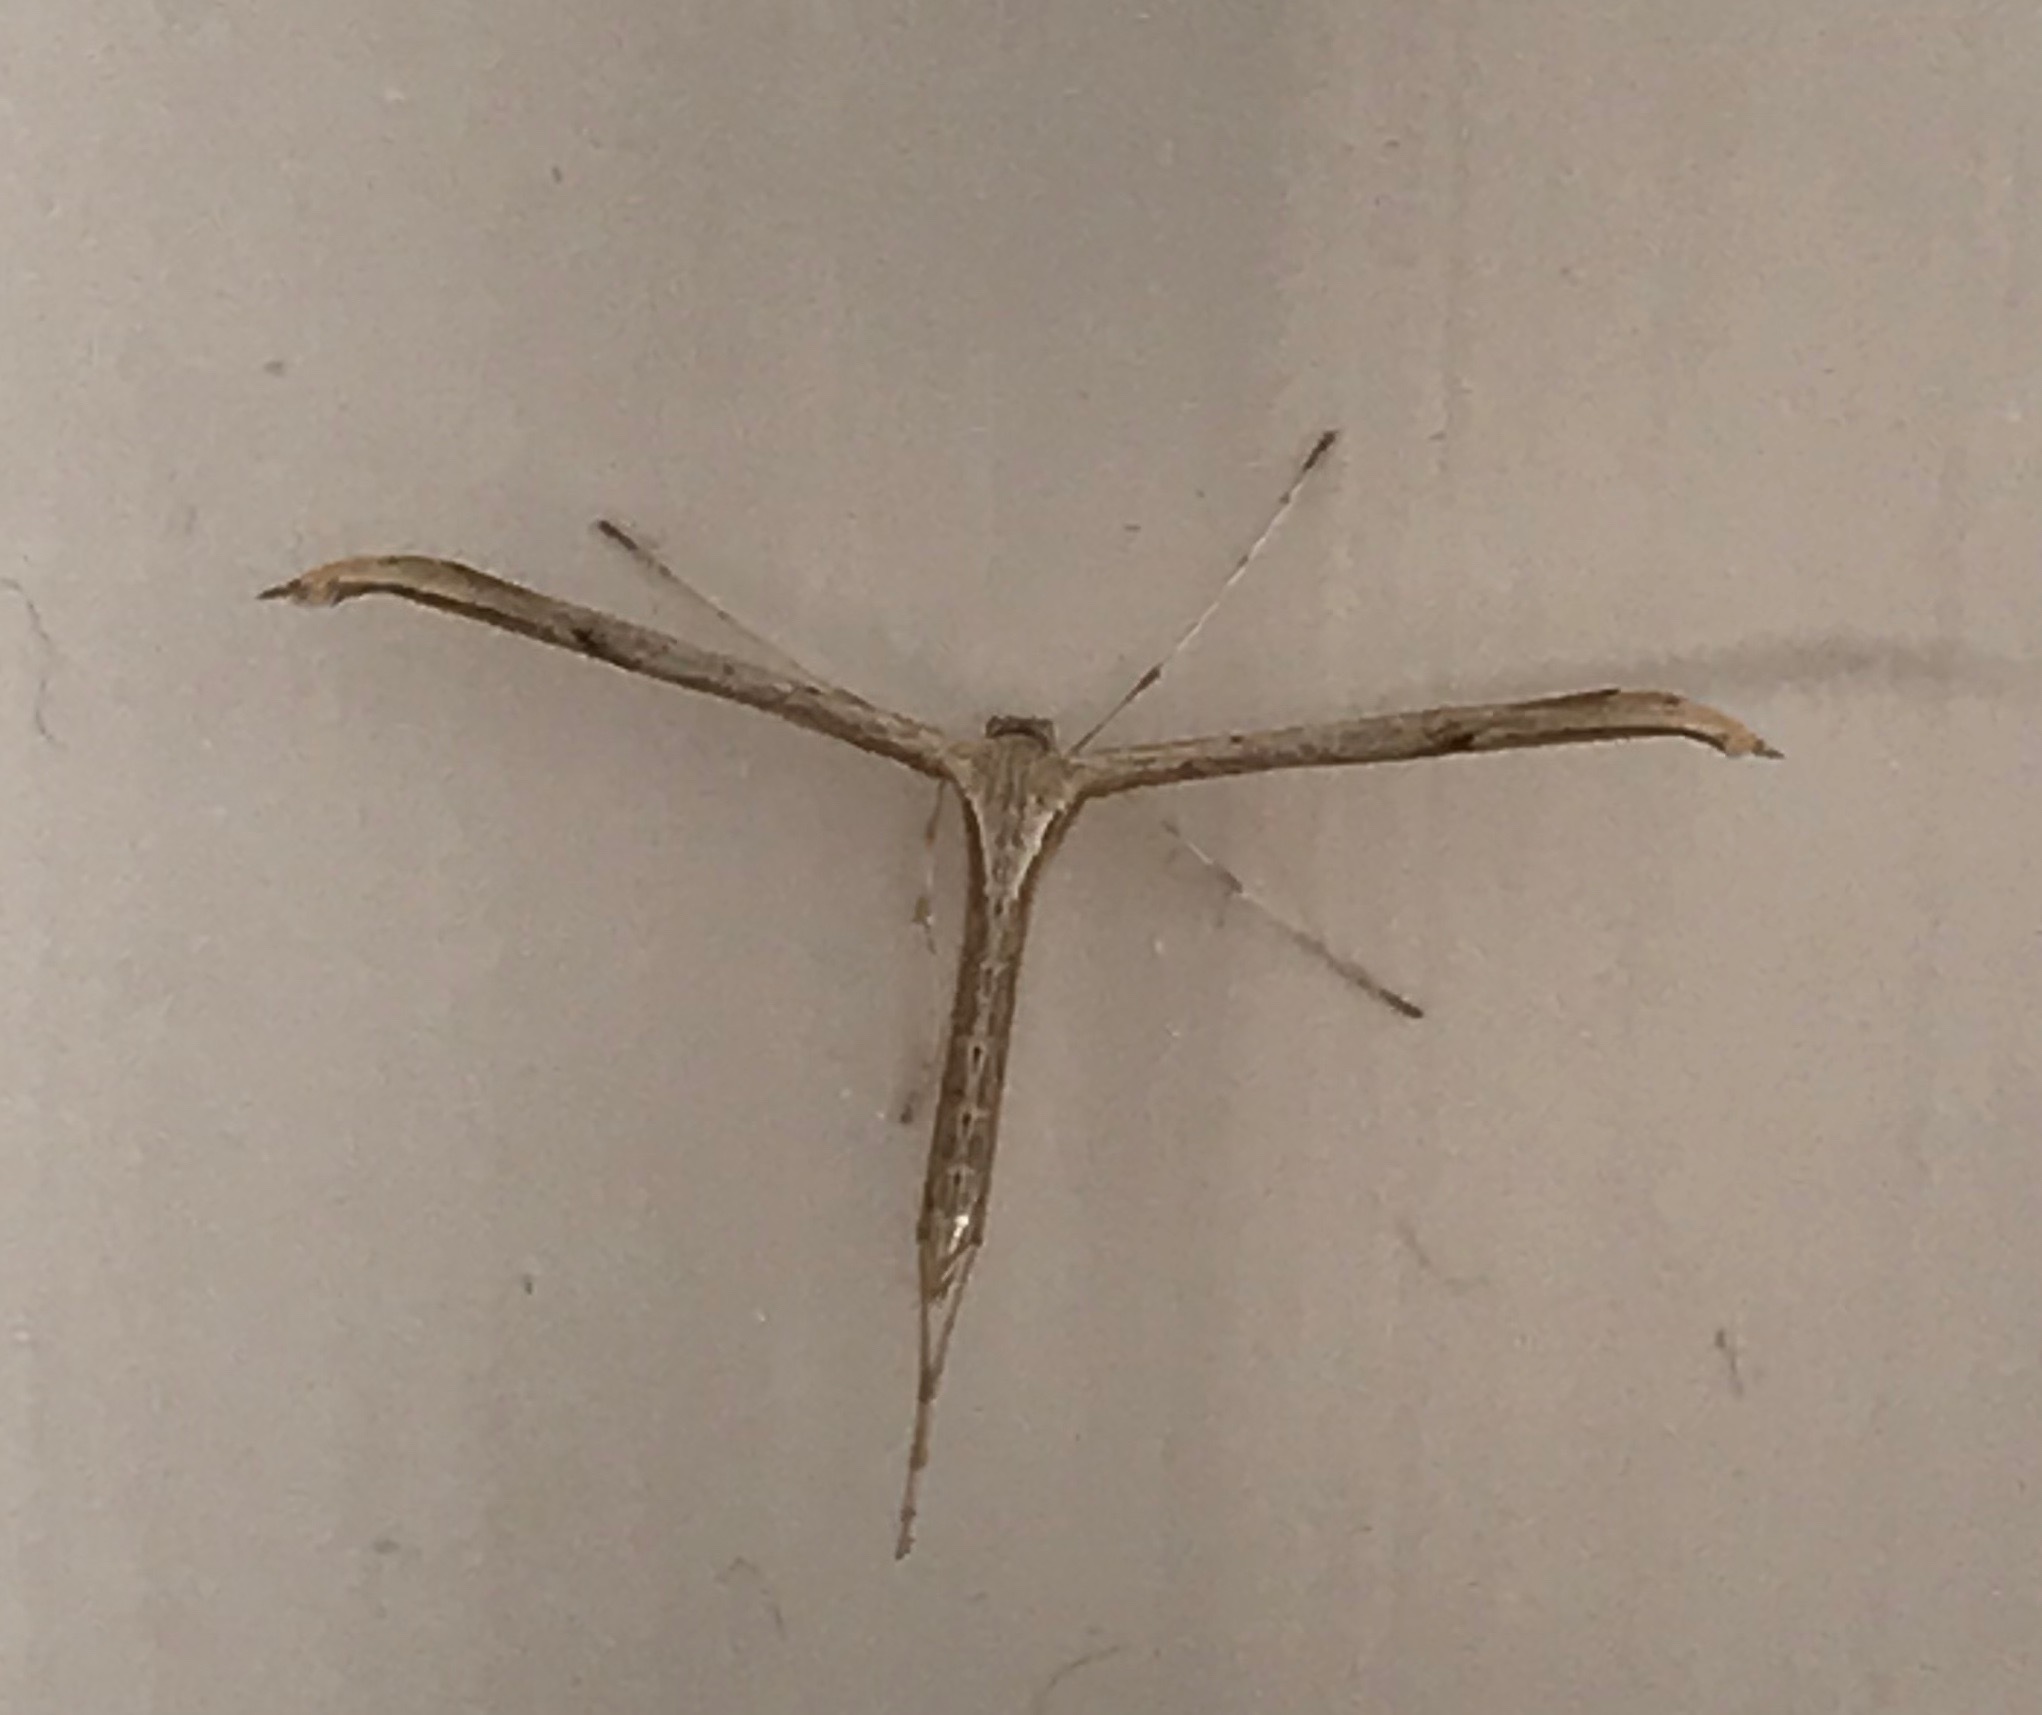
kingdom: Animalia
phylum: Arthropoda
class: Insecta
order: Lepidoptera
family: Pterophoridae
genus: Emmelina
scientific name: Emmelina monodactyla
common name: Common plume
